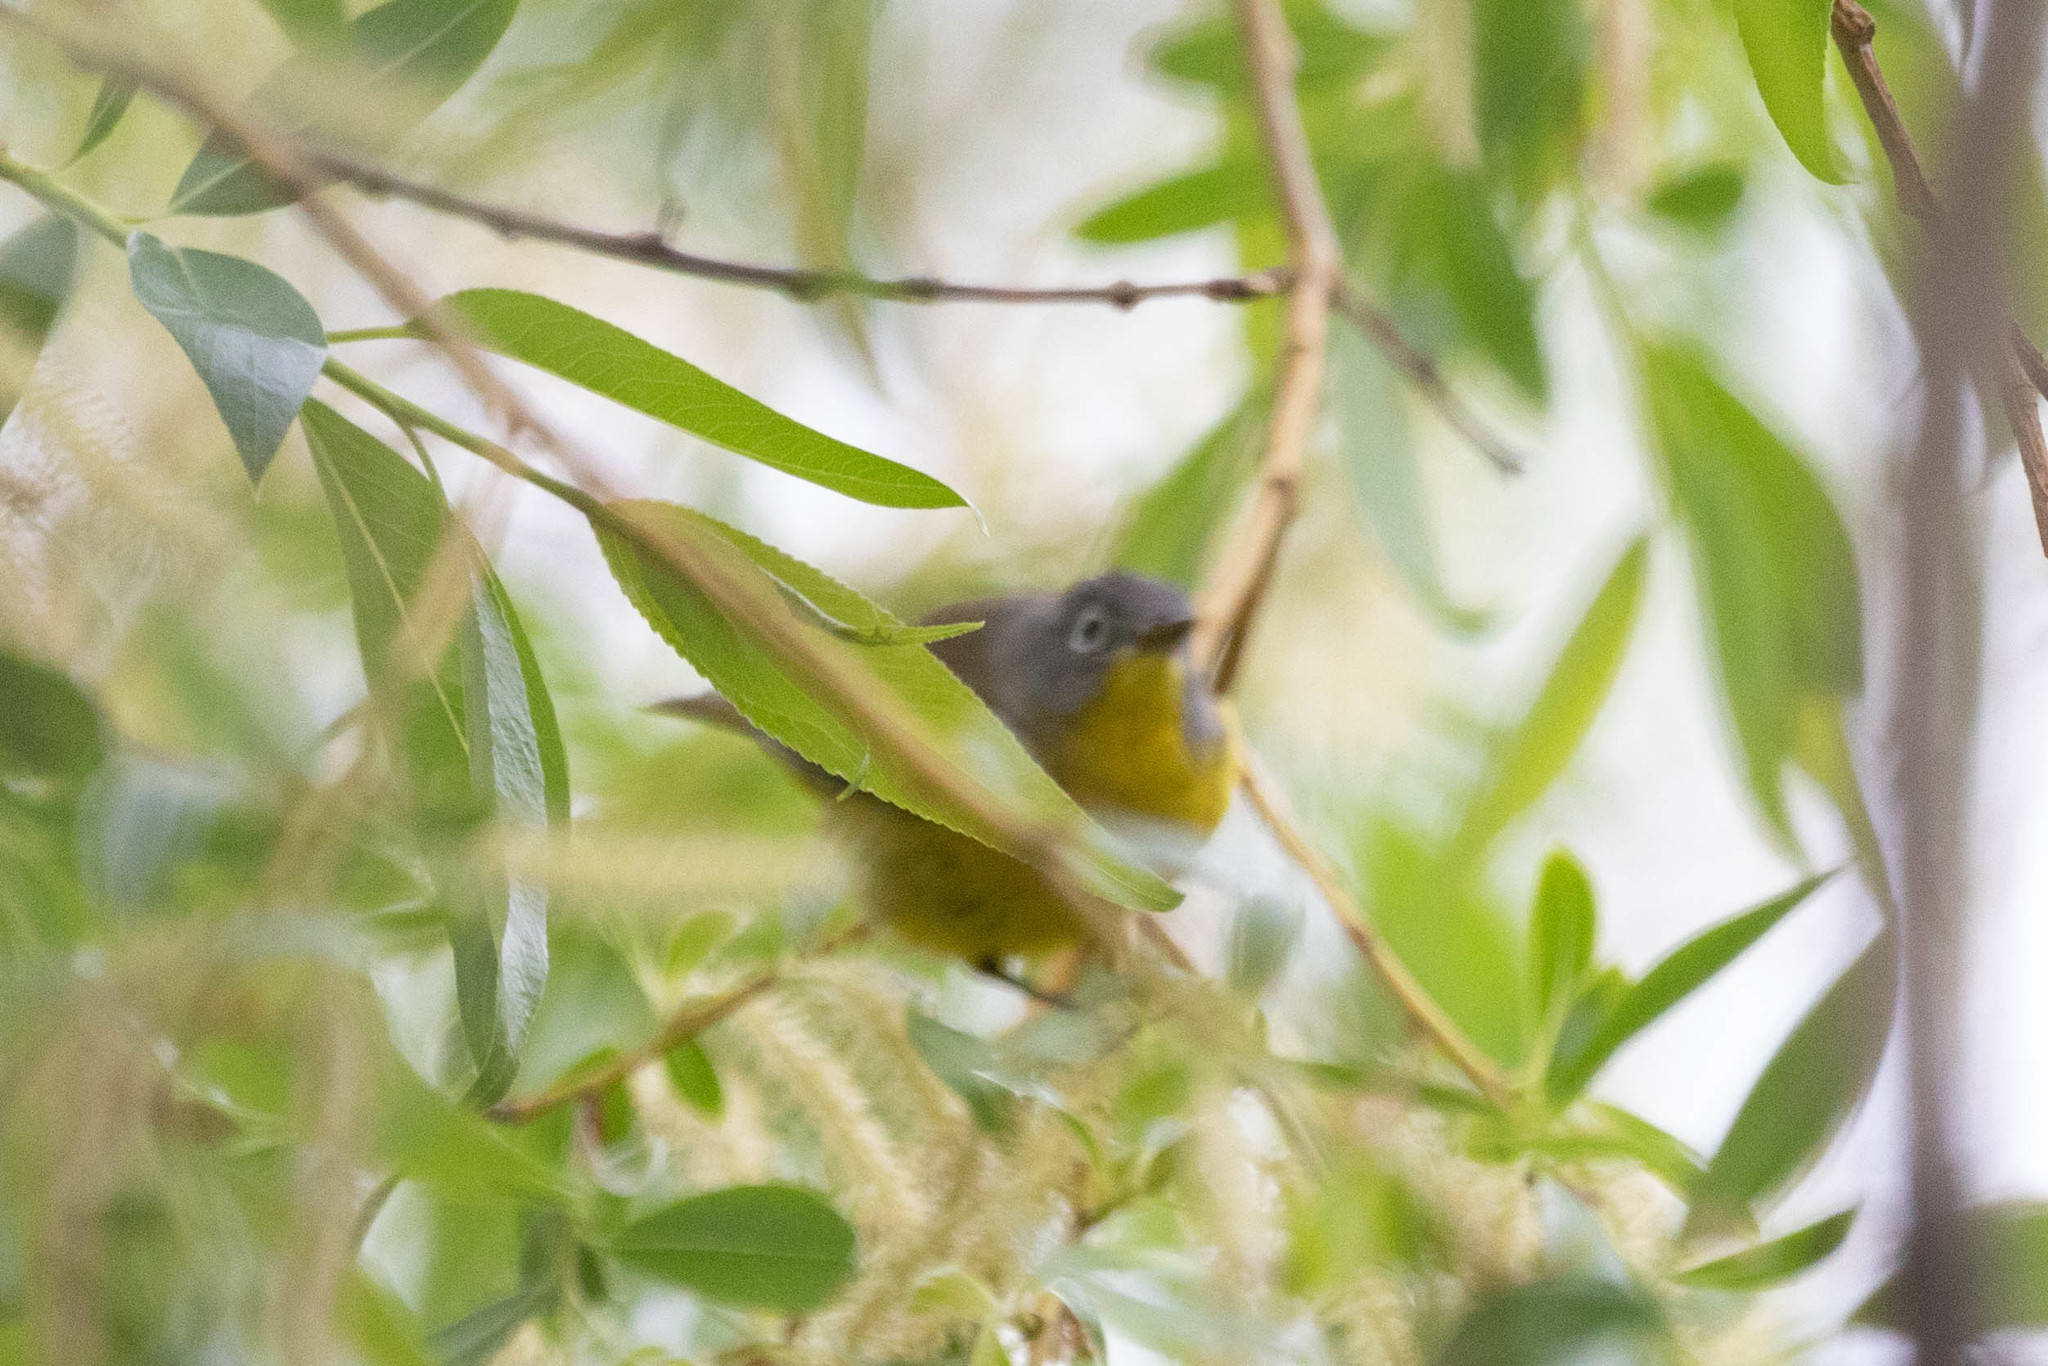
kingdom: Animalia
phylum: Chordata
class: Aves
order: Passeriformes
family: Parulidae
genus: Leiothlypis
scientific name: Leiothlypis ruficapilla
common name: Nashville warbler
